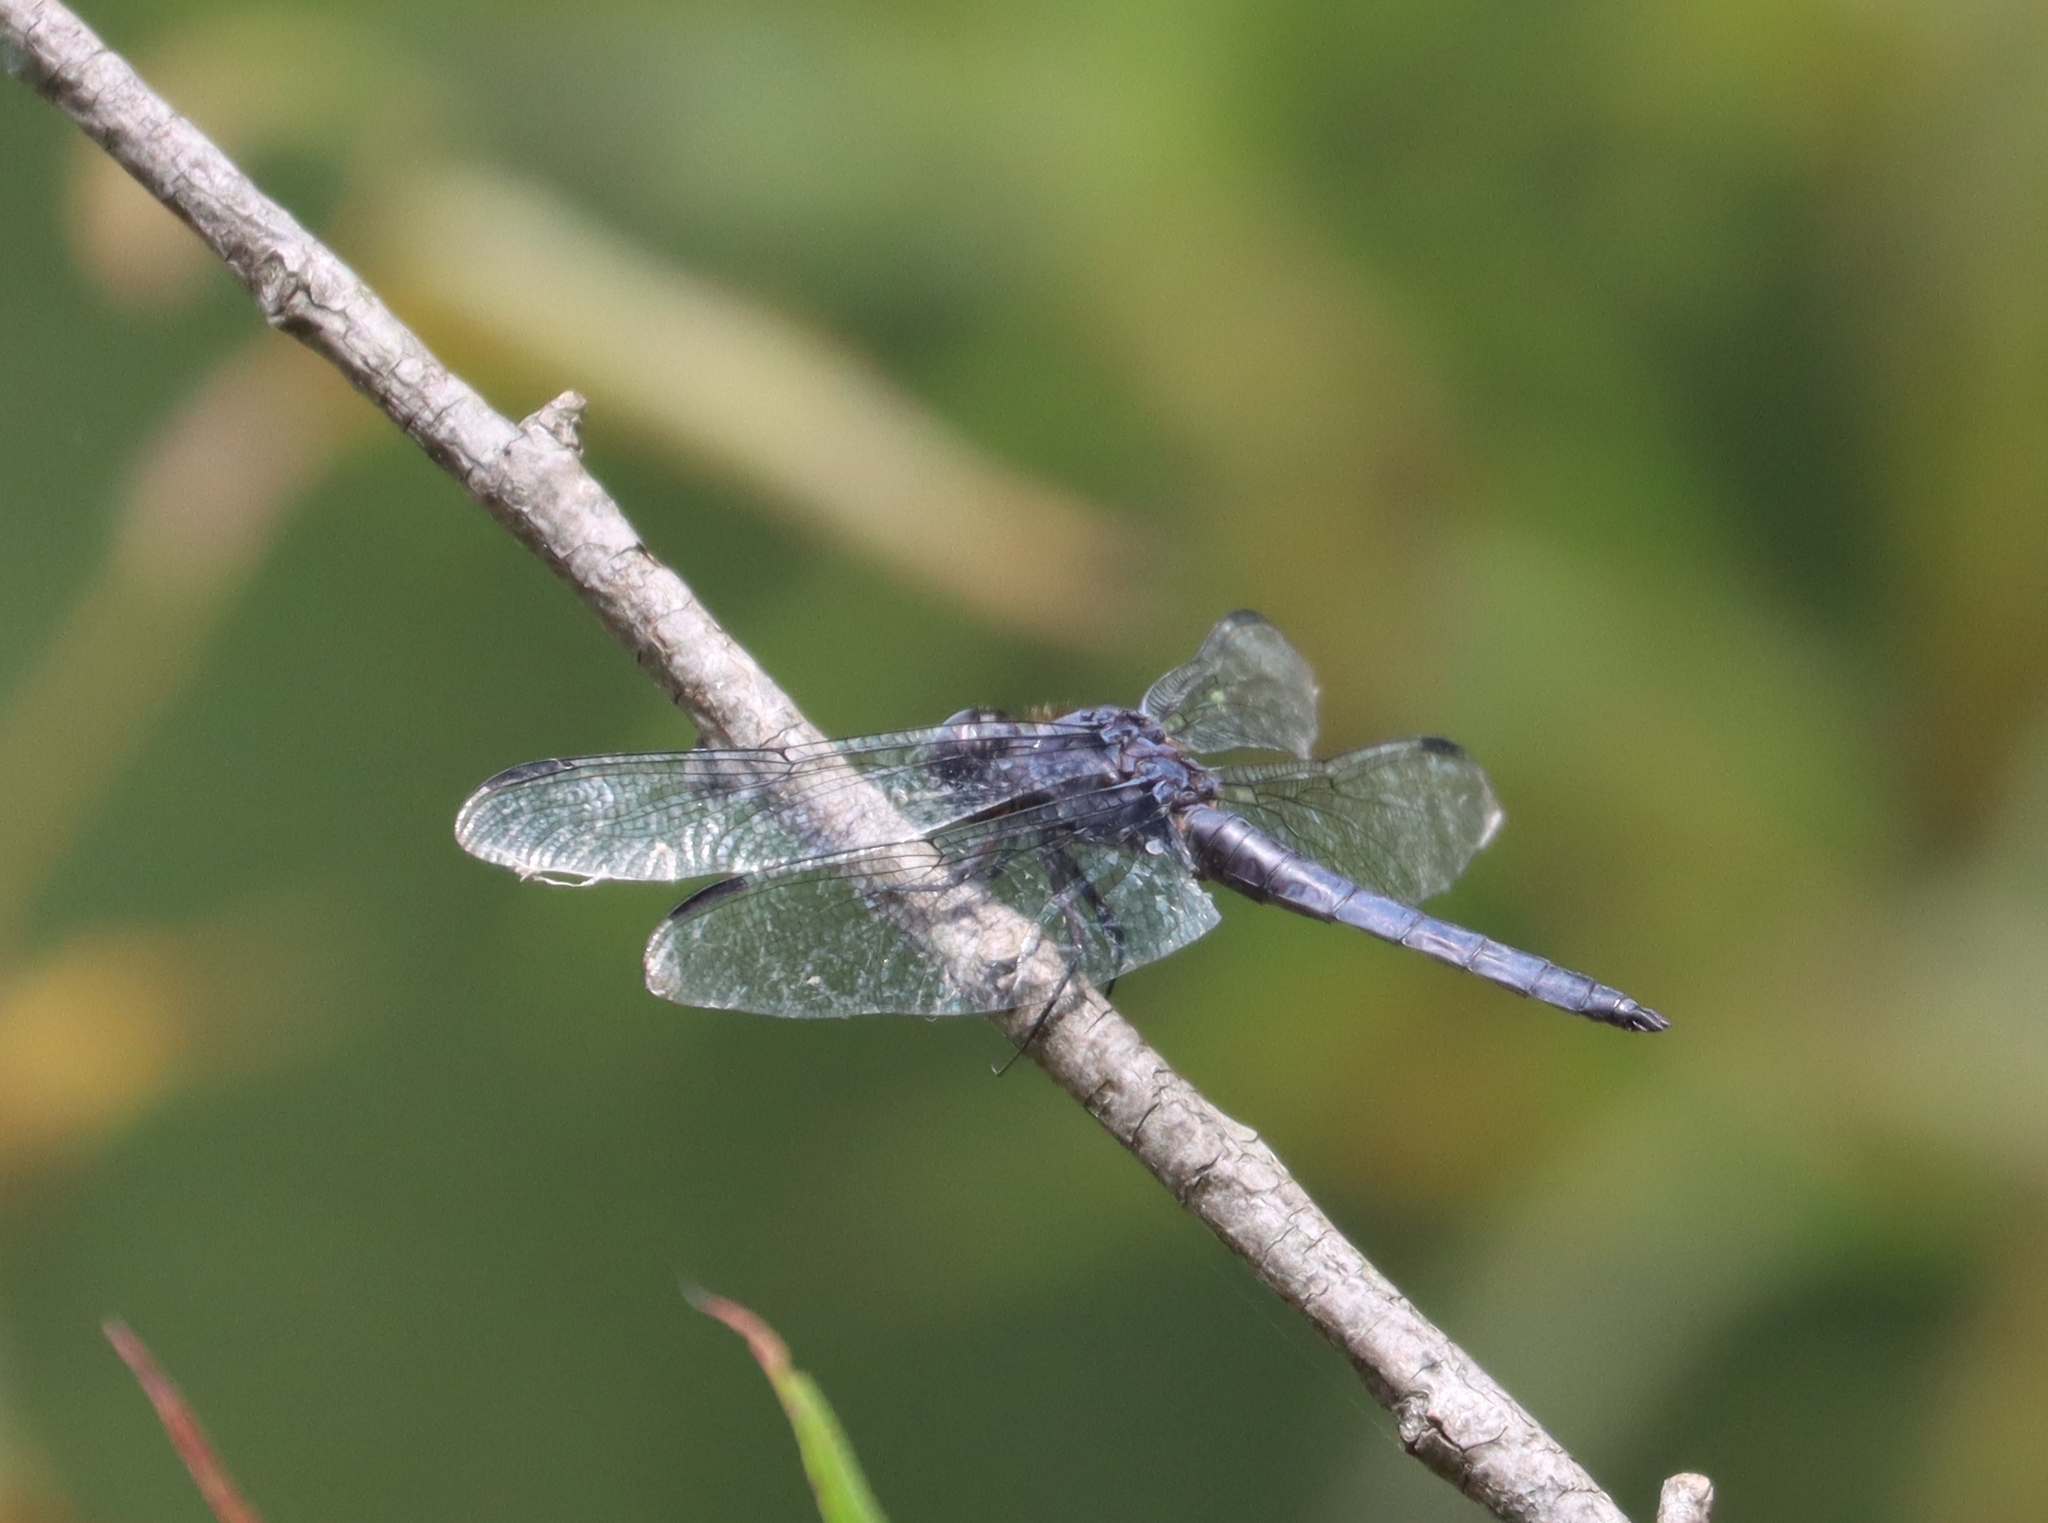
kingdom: Animalia
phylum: Arthropoda
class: Insecta
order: Odonata
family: Libellulidae
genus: Libellula
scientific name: Libellula incesta
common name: Slaty skimmer
